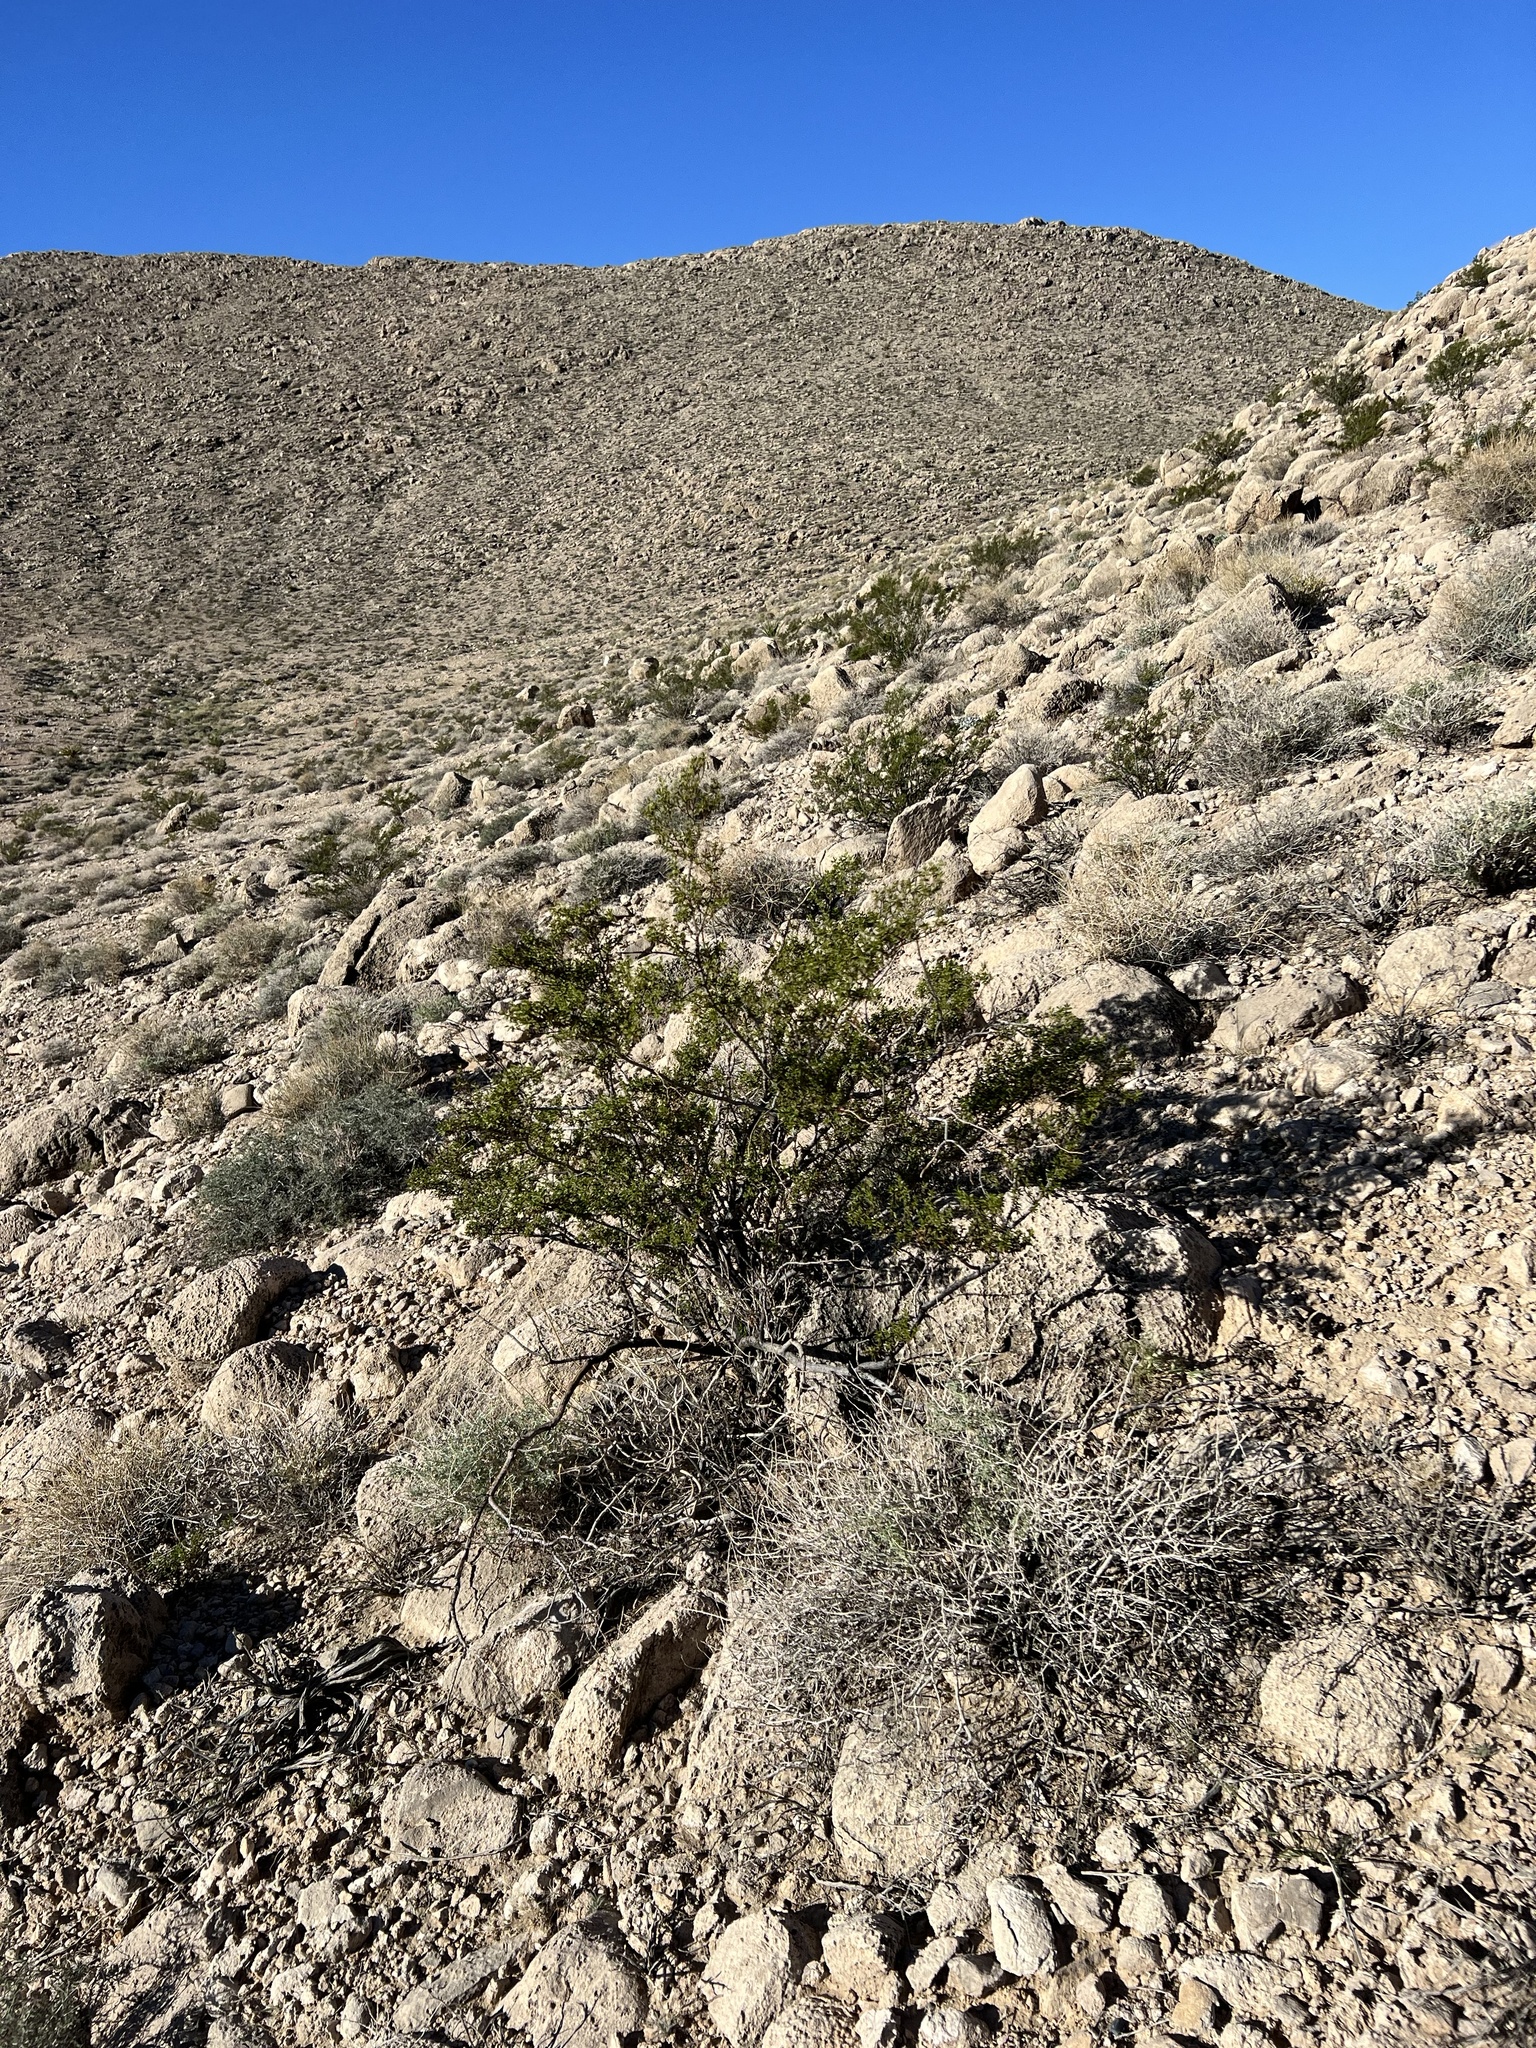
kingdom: Plantae
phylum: Tracheophyta
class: Magnoliopsida
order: Zygophyllales
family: Zygophyllaceae
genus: Larrea
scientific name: Larrea tridentata
